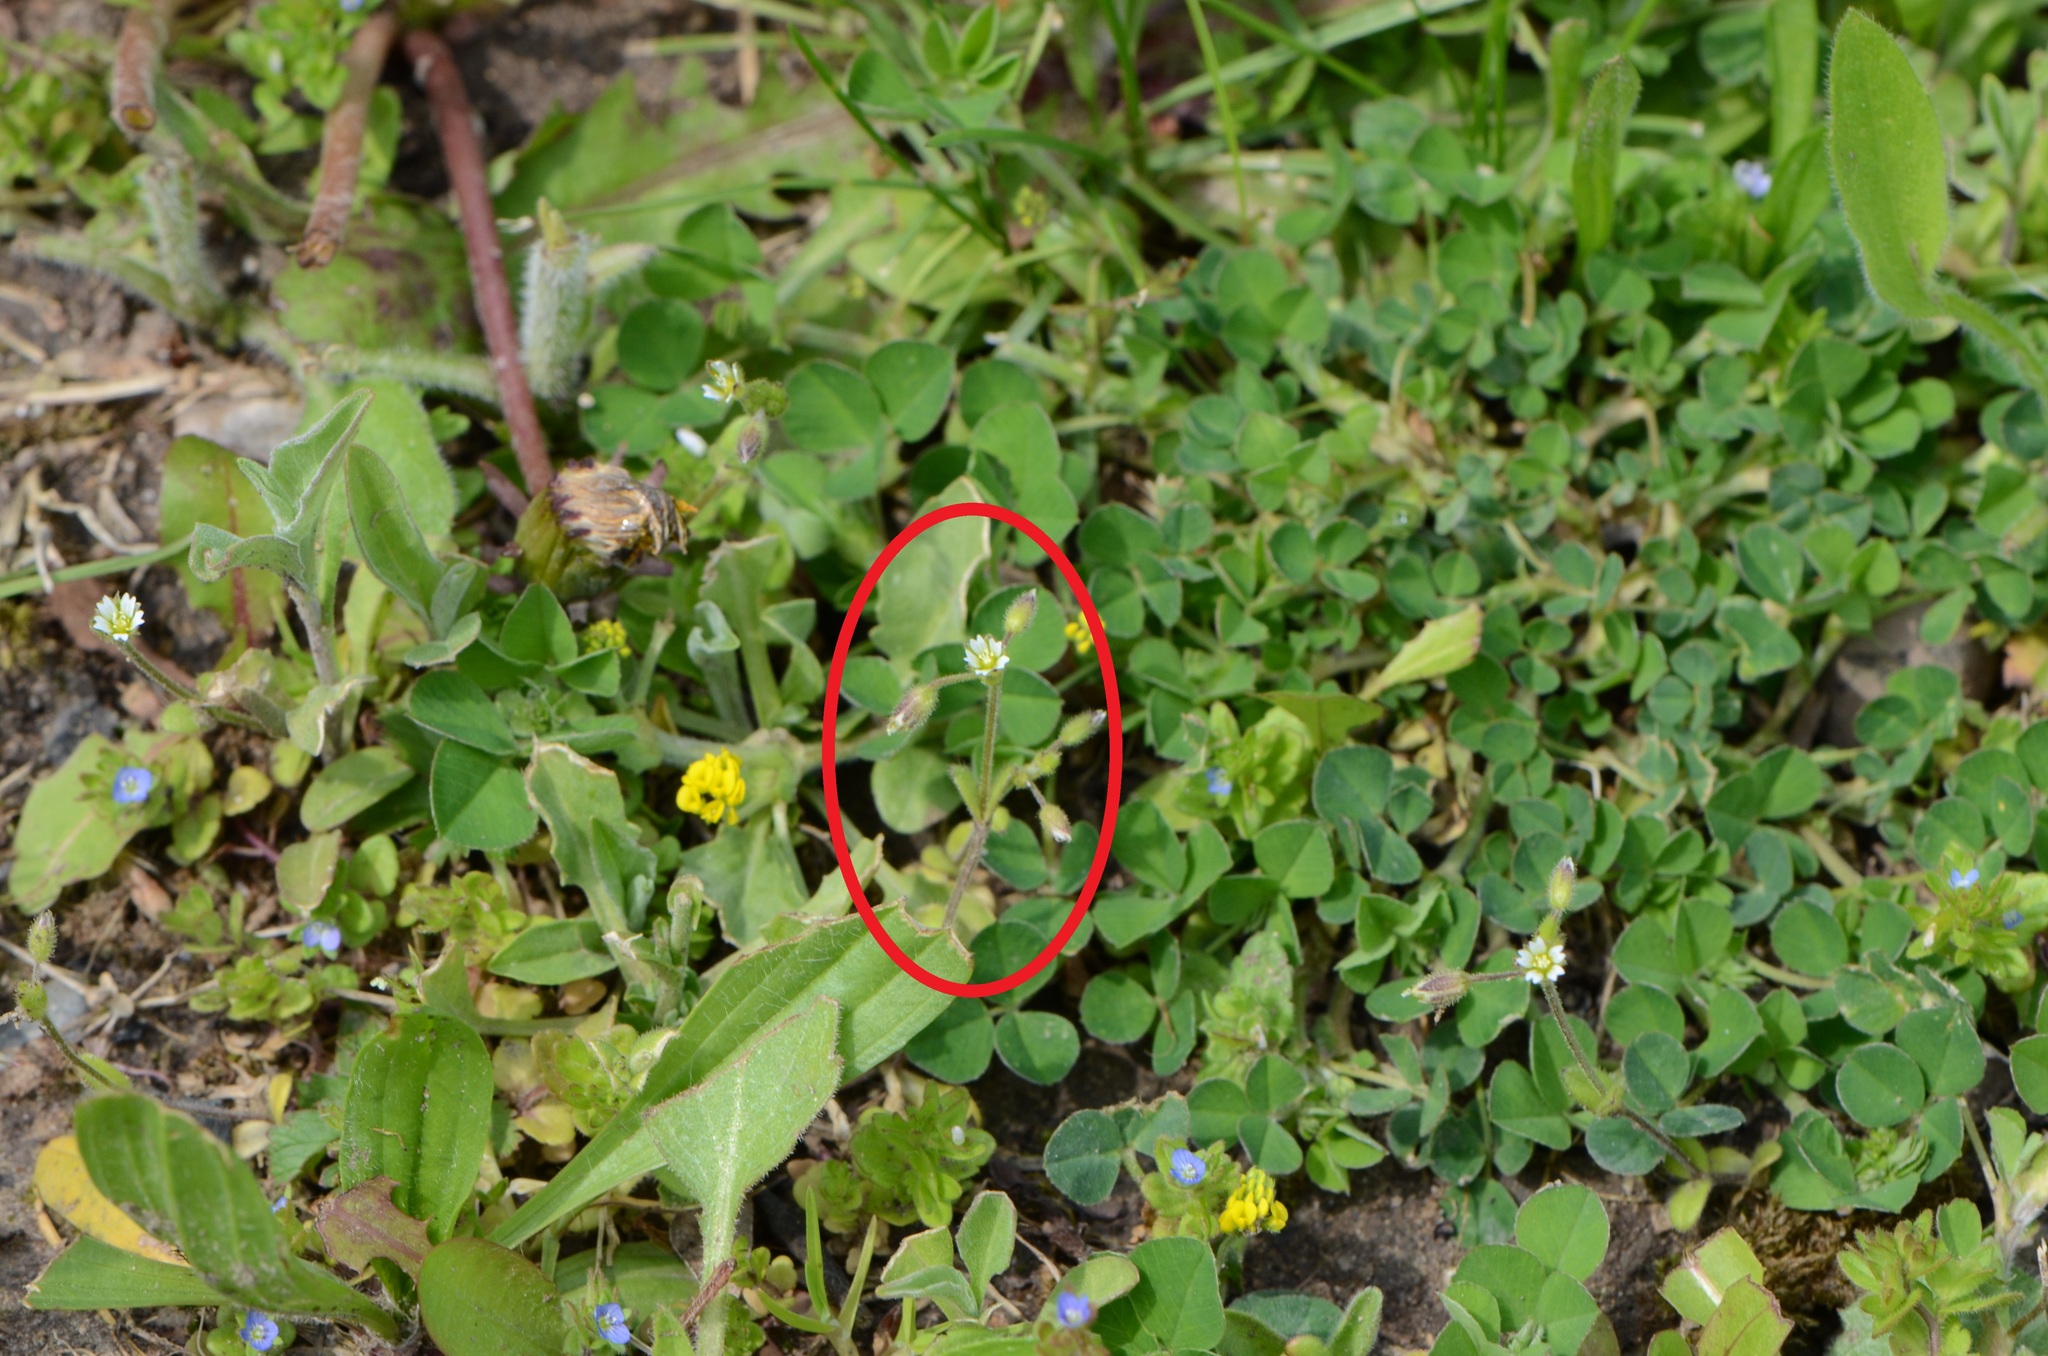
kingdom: Plantae
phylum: Tracheophyta
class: Magnoliopsida
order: Caryophyllales
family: Caryophyllaceae
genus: Cerastium
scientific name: Cerastium holosteoides
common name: Big chickweed
